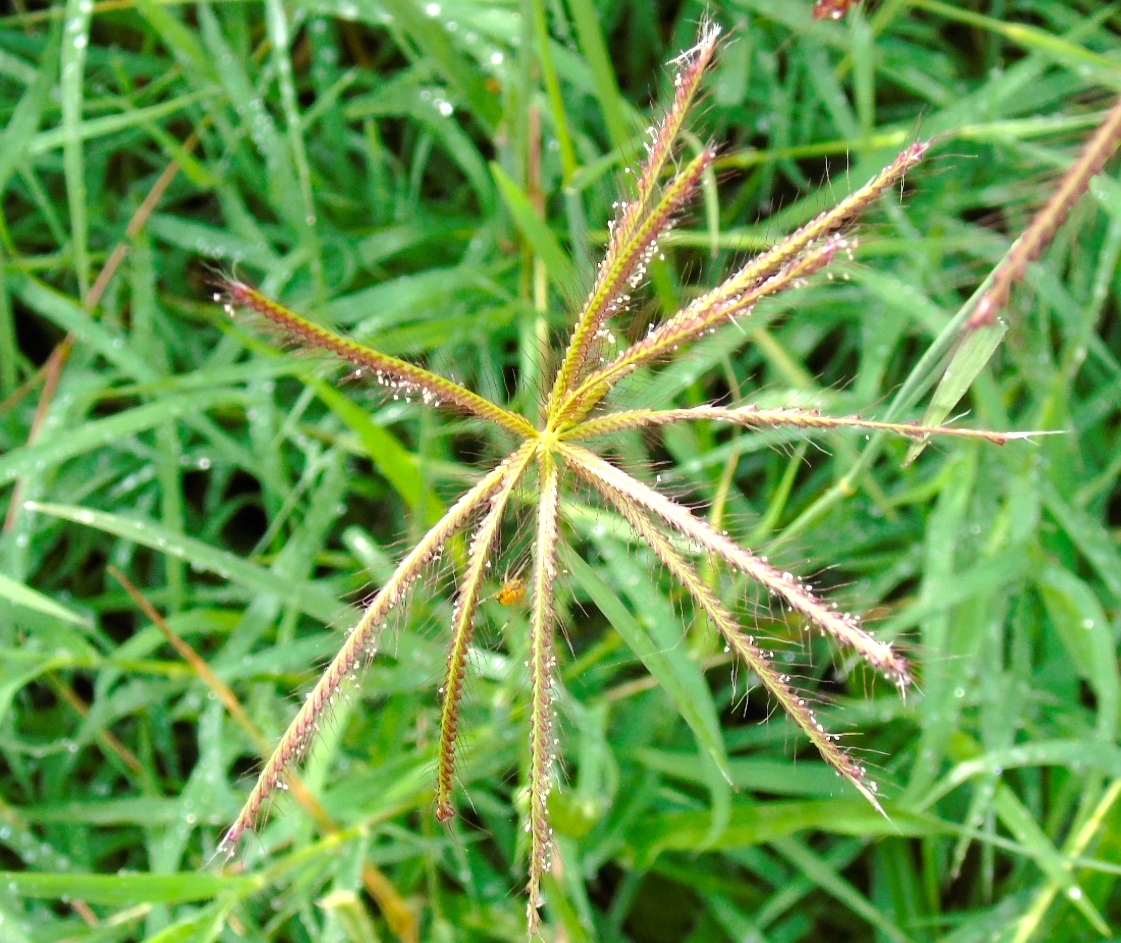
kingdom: Plantae
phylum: Tracheophyta
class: Liliopsida
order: Poales
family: Poaceae
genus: Chloris
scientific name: Chloris virgata
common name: Feathery rhodes-grass
